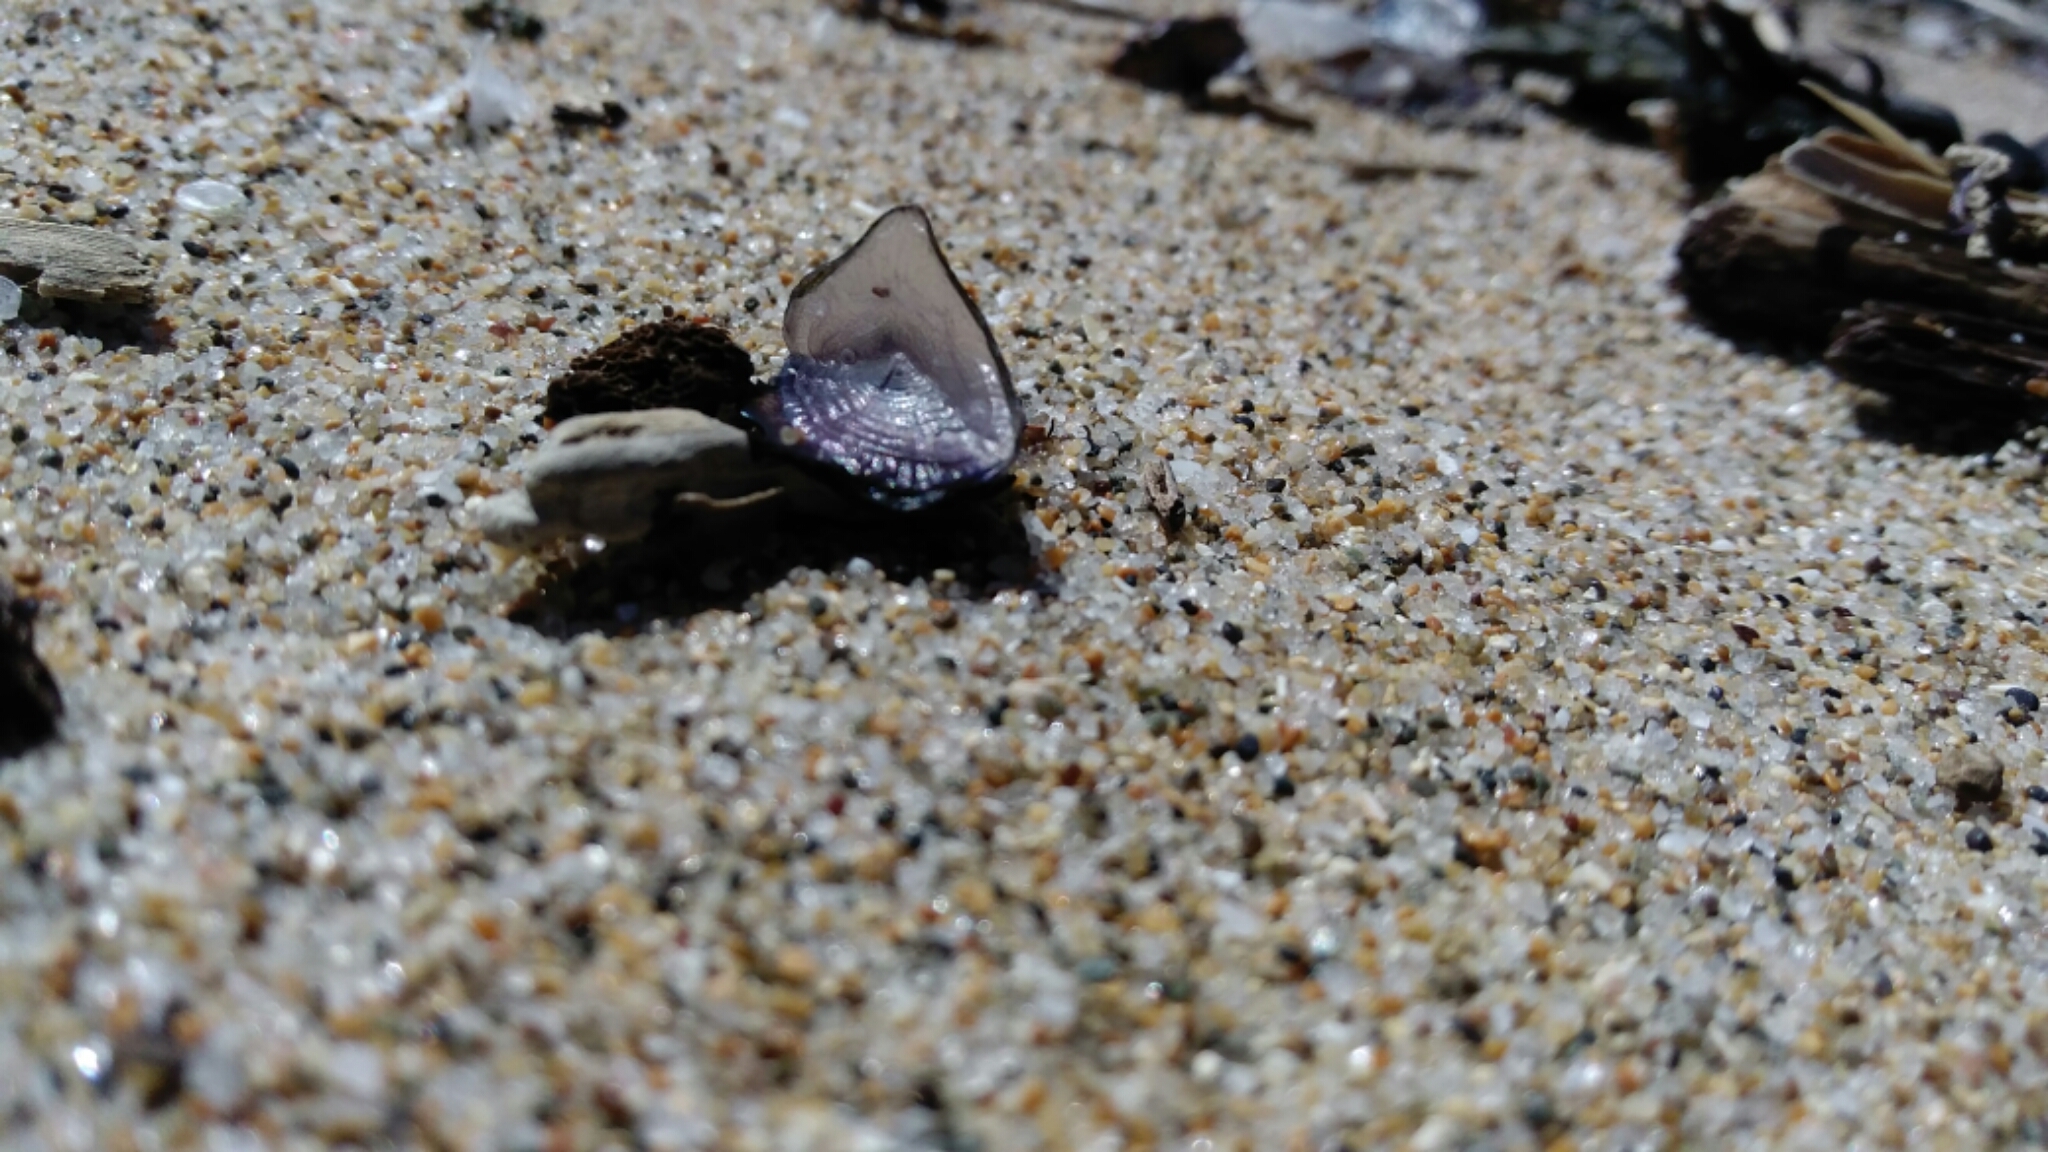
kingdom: Animalia
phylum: Cnidaria
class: Hydrozoa
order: Anthoathecata
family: Porpitidae
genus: Velella
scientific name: Velella velella
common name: By-the-wind-sailor
